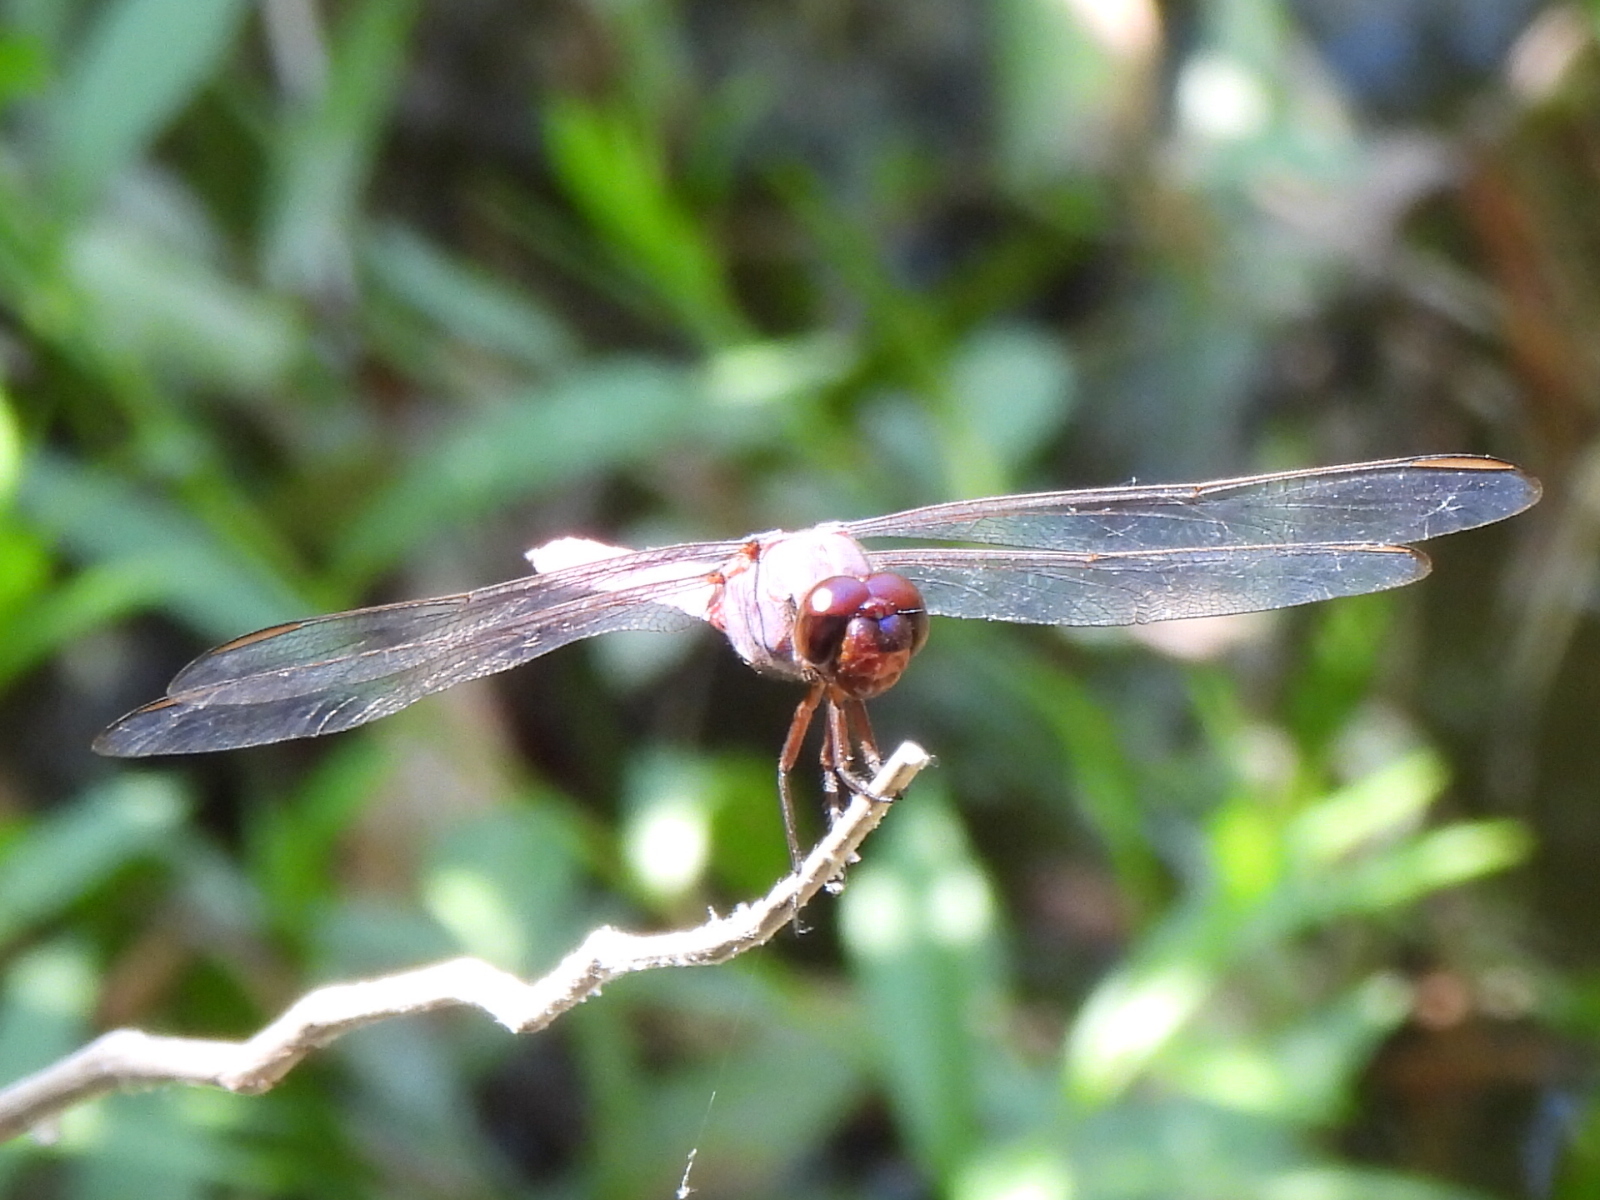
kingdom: Animalia
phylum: Arthropoda
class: Insecta
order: Odonata
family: Libellulidae
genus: Orthemis
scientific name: Orthemis ferruginea
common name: Roseate skimmer
